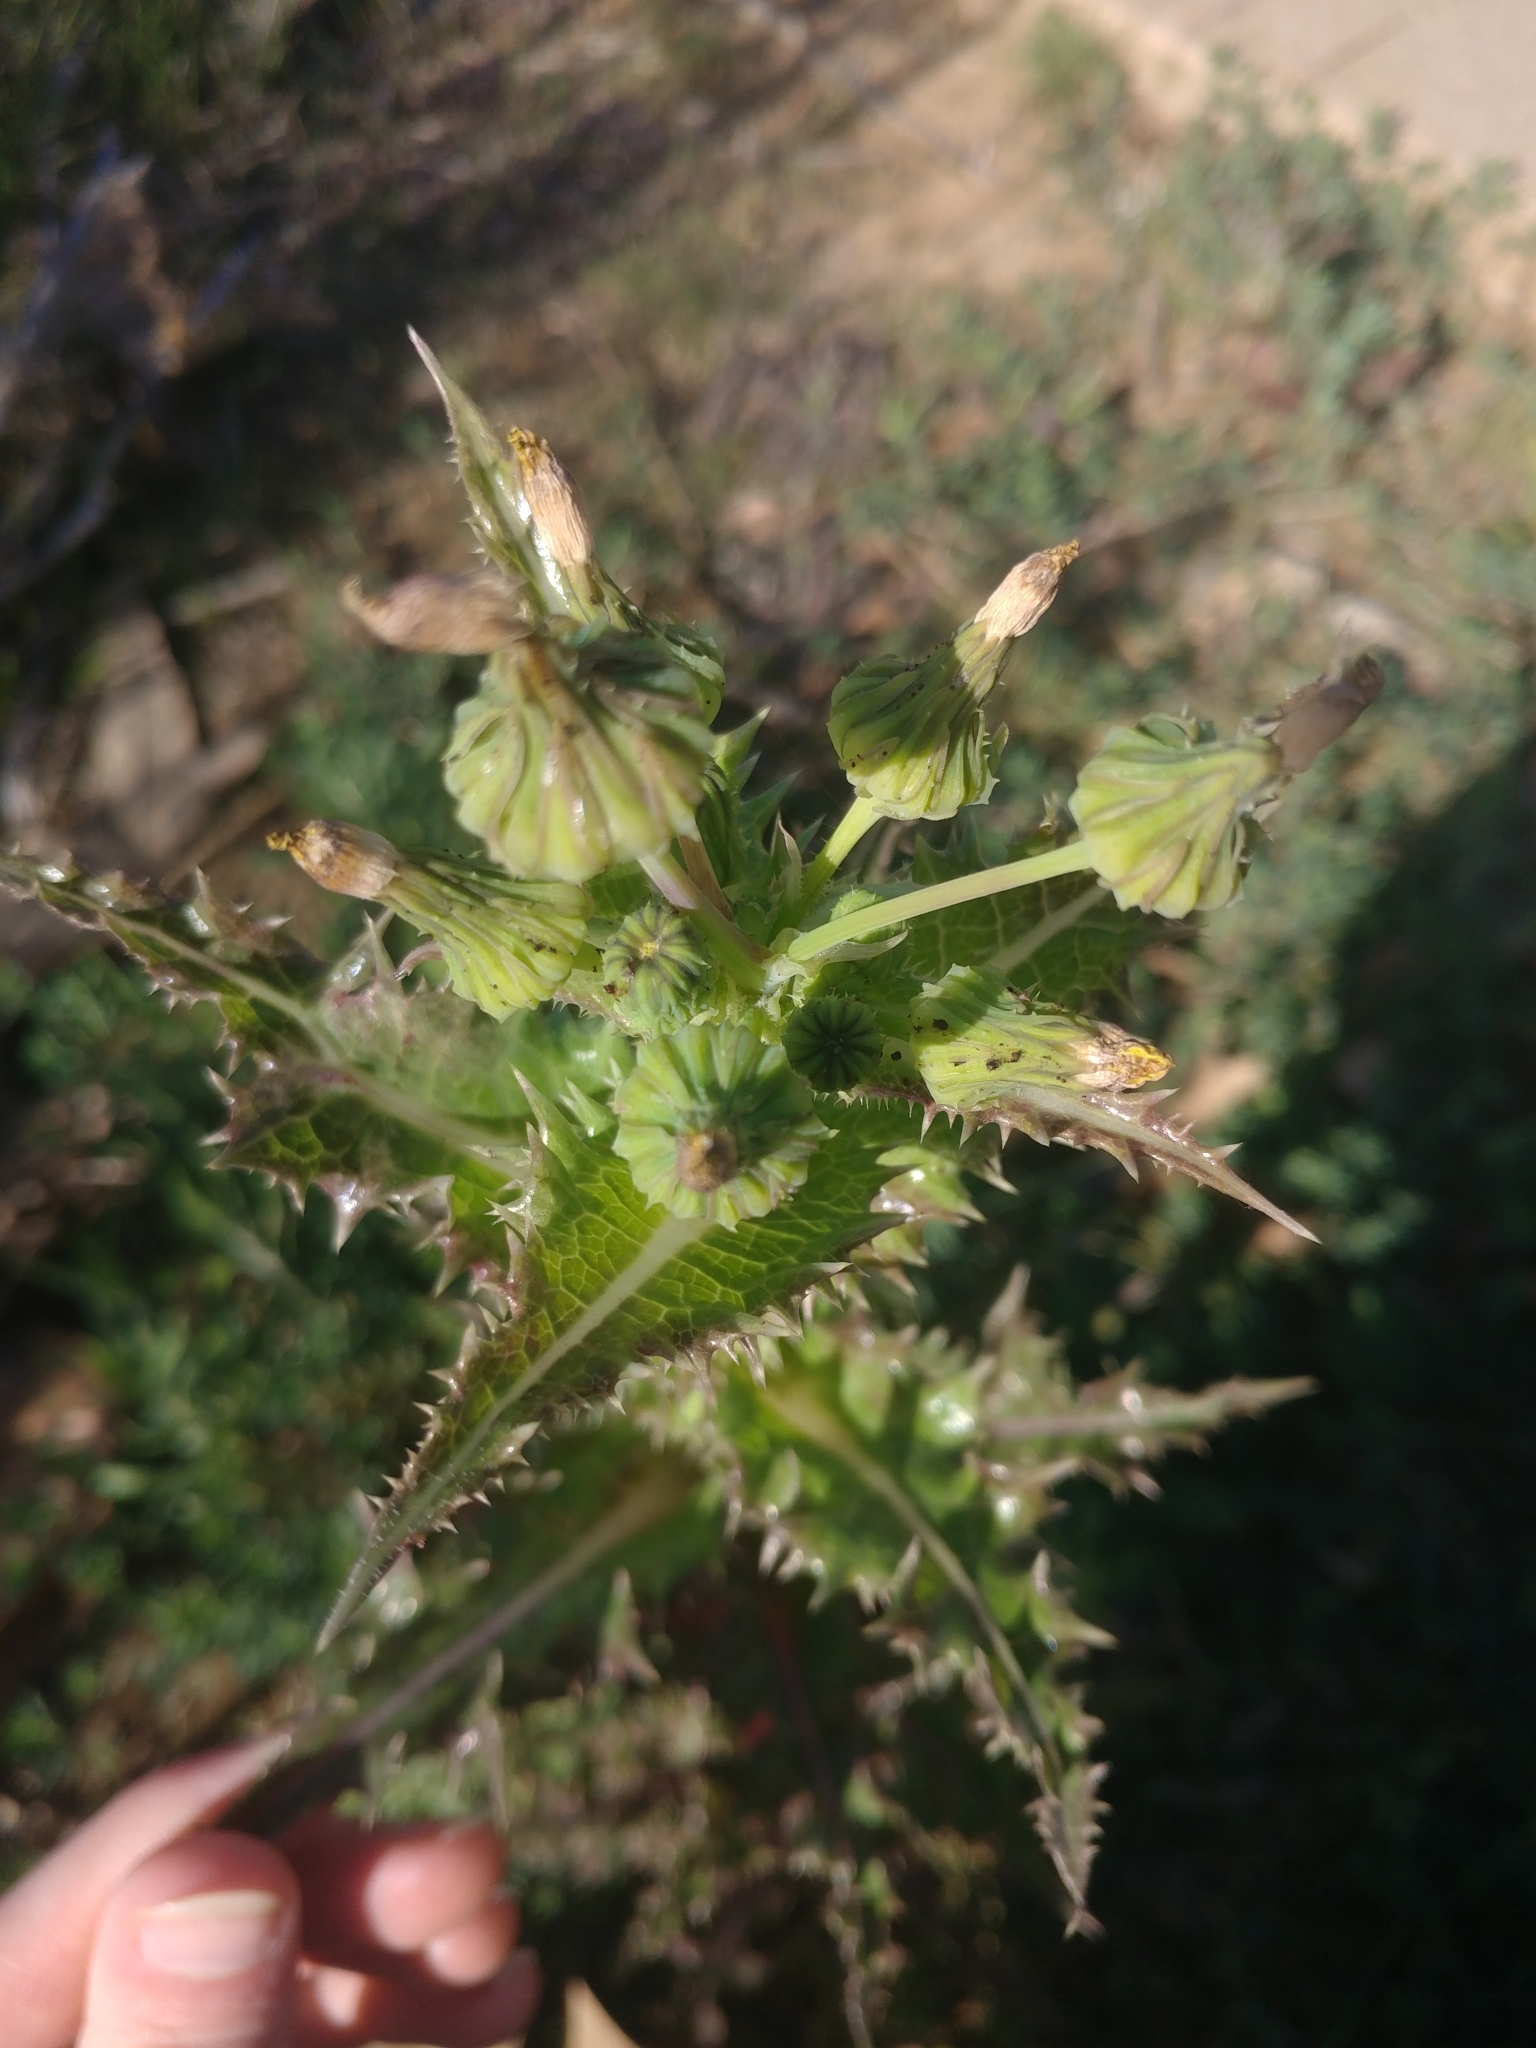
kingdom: Plantae
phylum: Tracheophyta
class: Magnoliopsida
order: Asterales
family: Asteraceae
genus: Sonchus
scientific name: Sonchus asper
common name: Prickly sow-thistle
